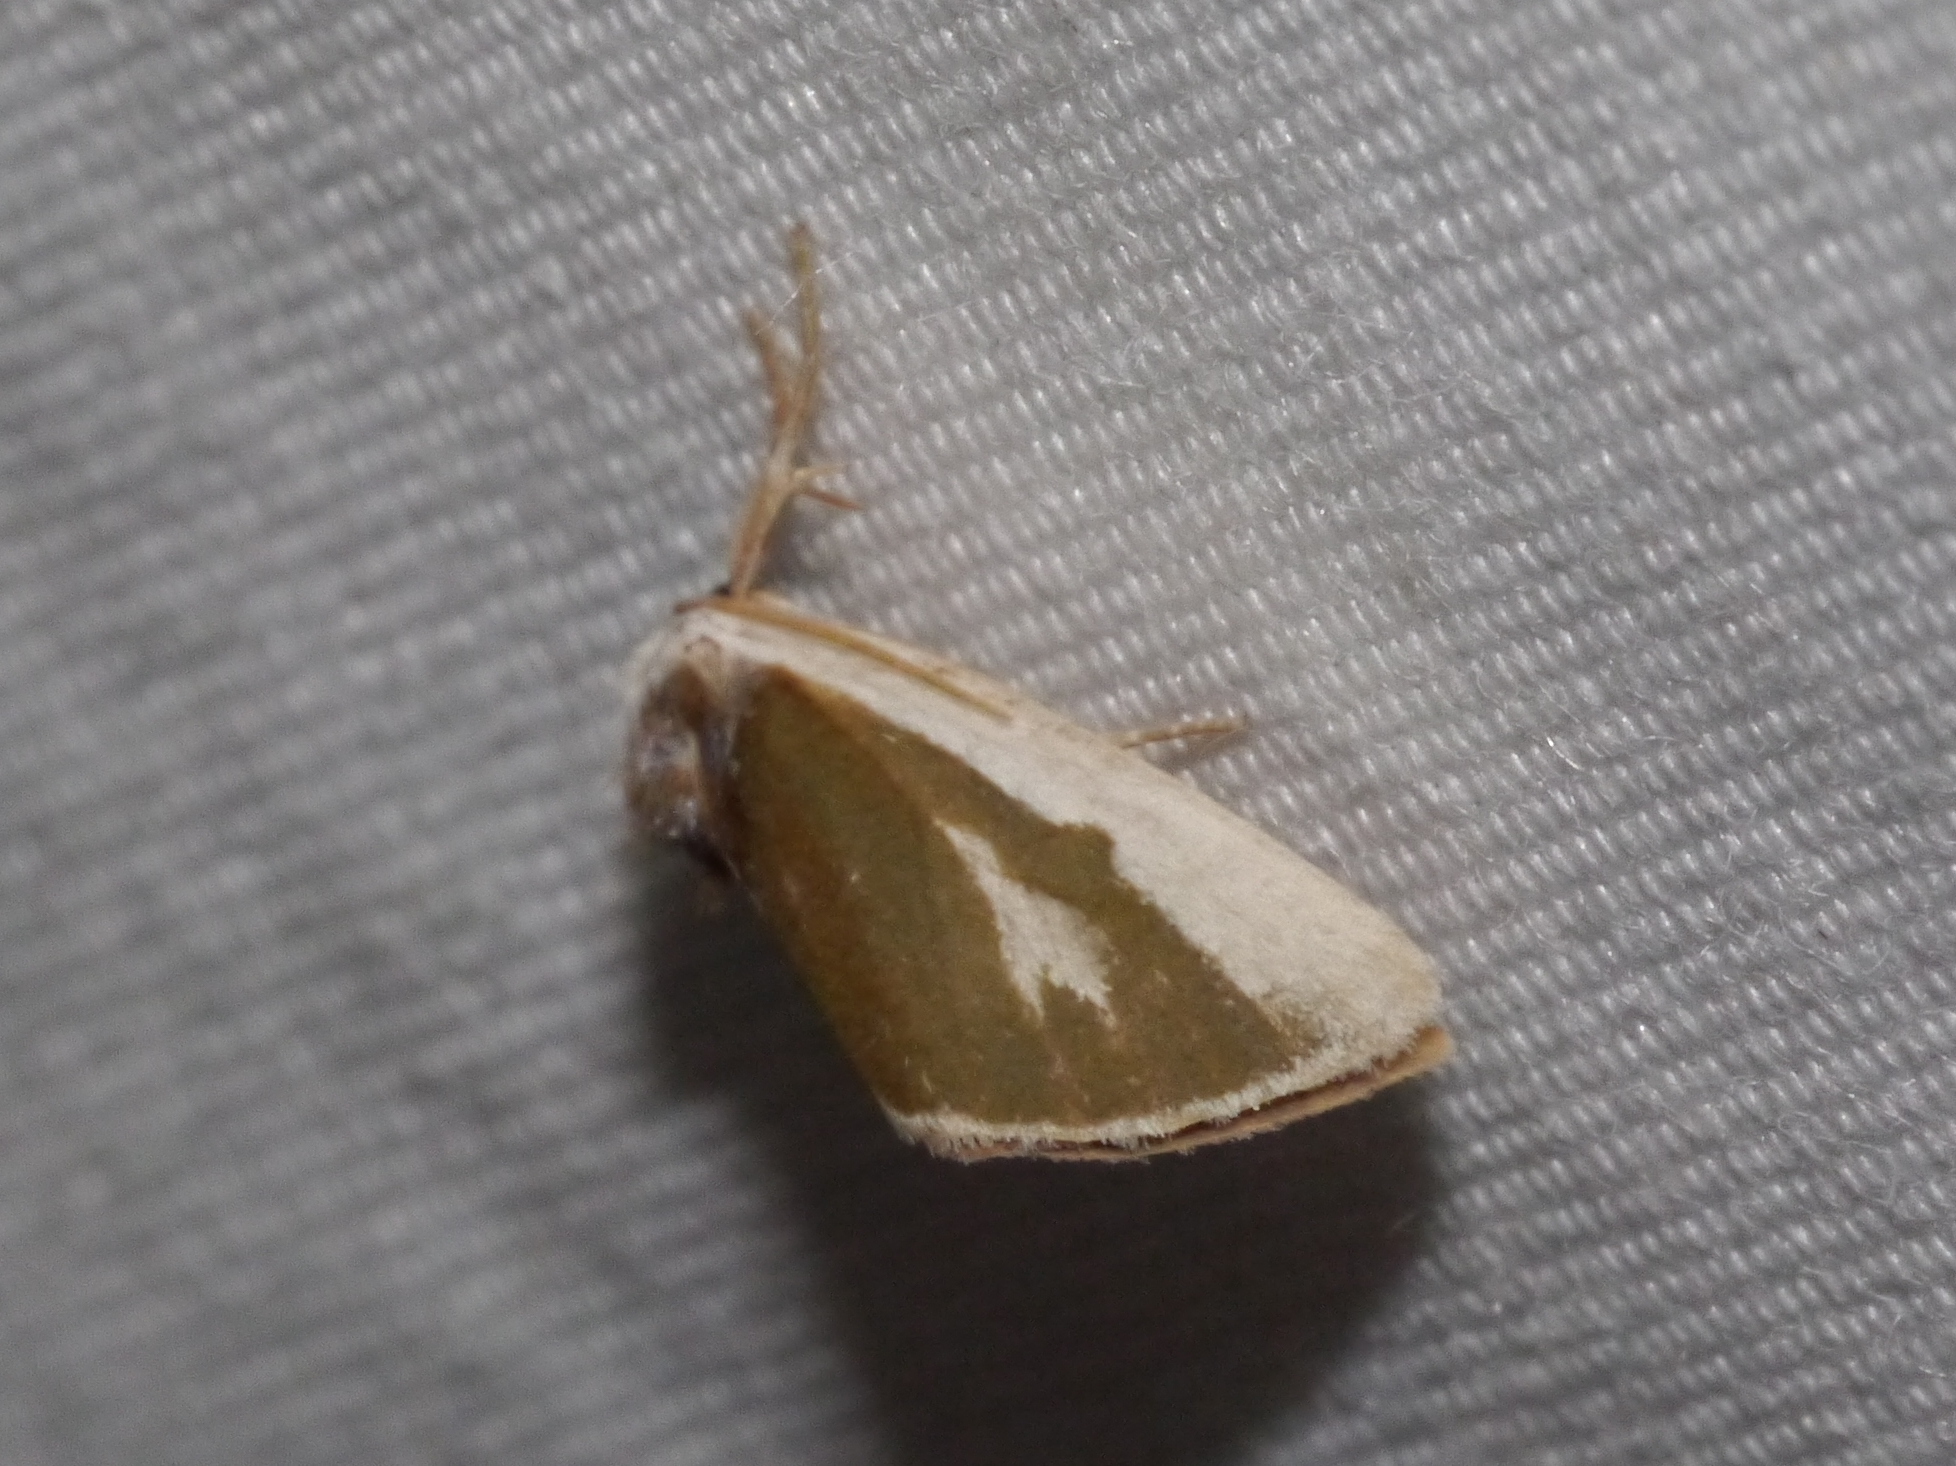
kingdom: Animalia
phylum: Arthropoda
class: Insecta
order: Lepidoptera
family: Noctuidae
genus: Neumoegenia
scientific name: Neumoegenia poetica
